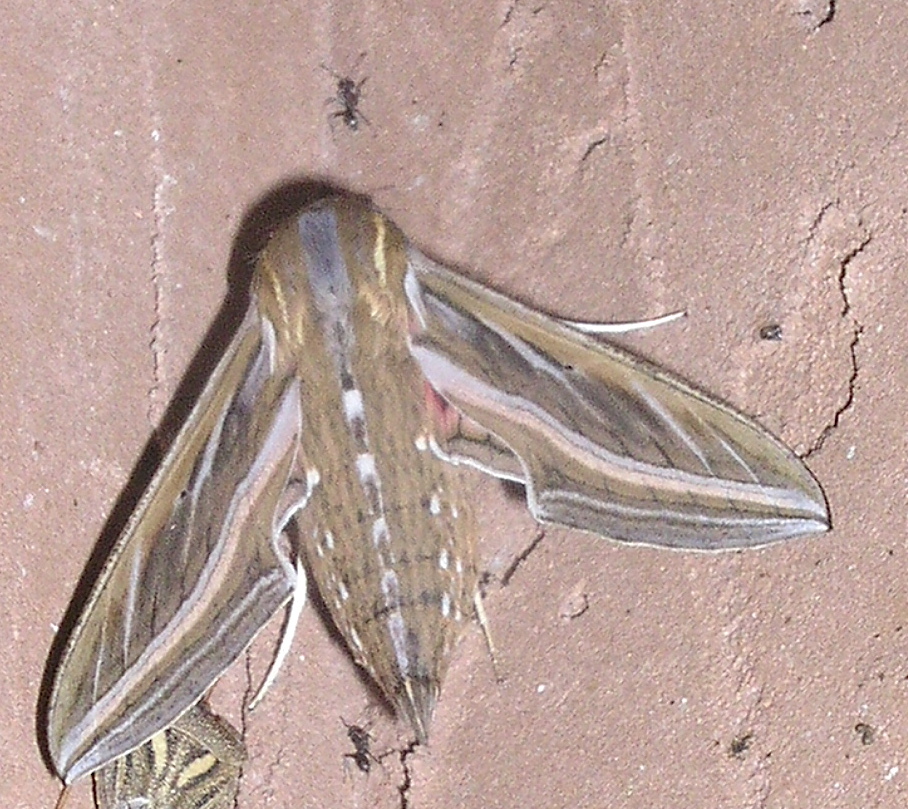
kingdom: Animalia
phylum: Arthropoda
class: Insecta
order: Lepidoptera
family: Sphingidae
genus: Hippotion
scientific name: Hippotion celerio
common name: Silver-striped hawk-moth
